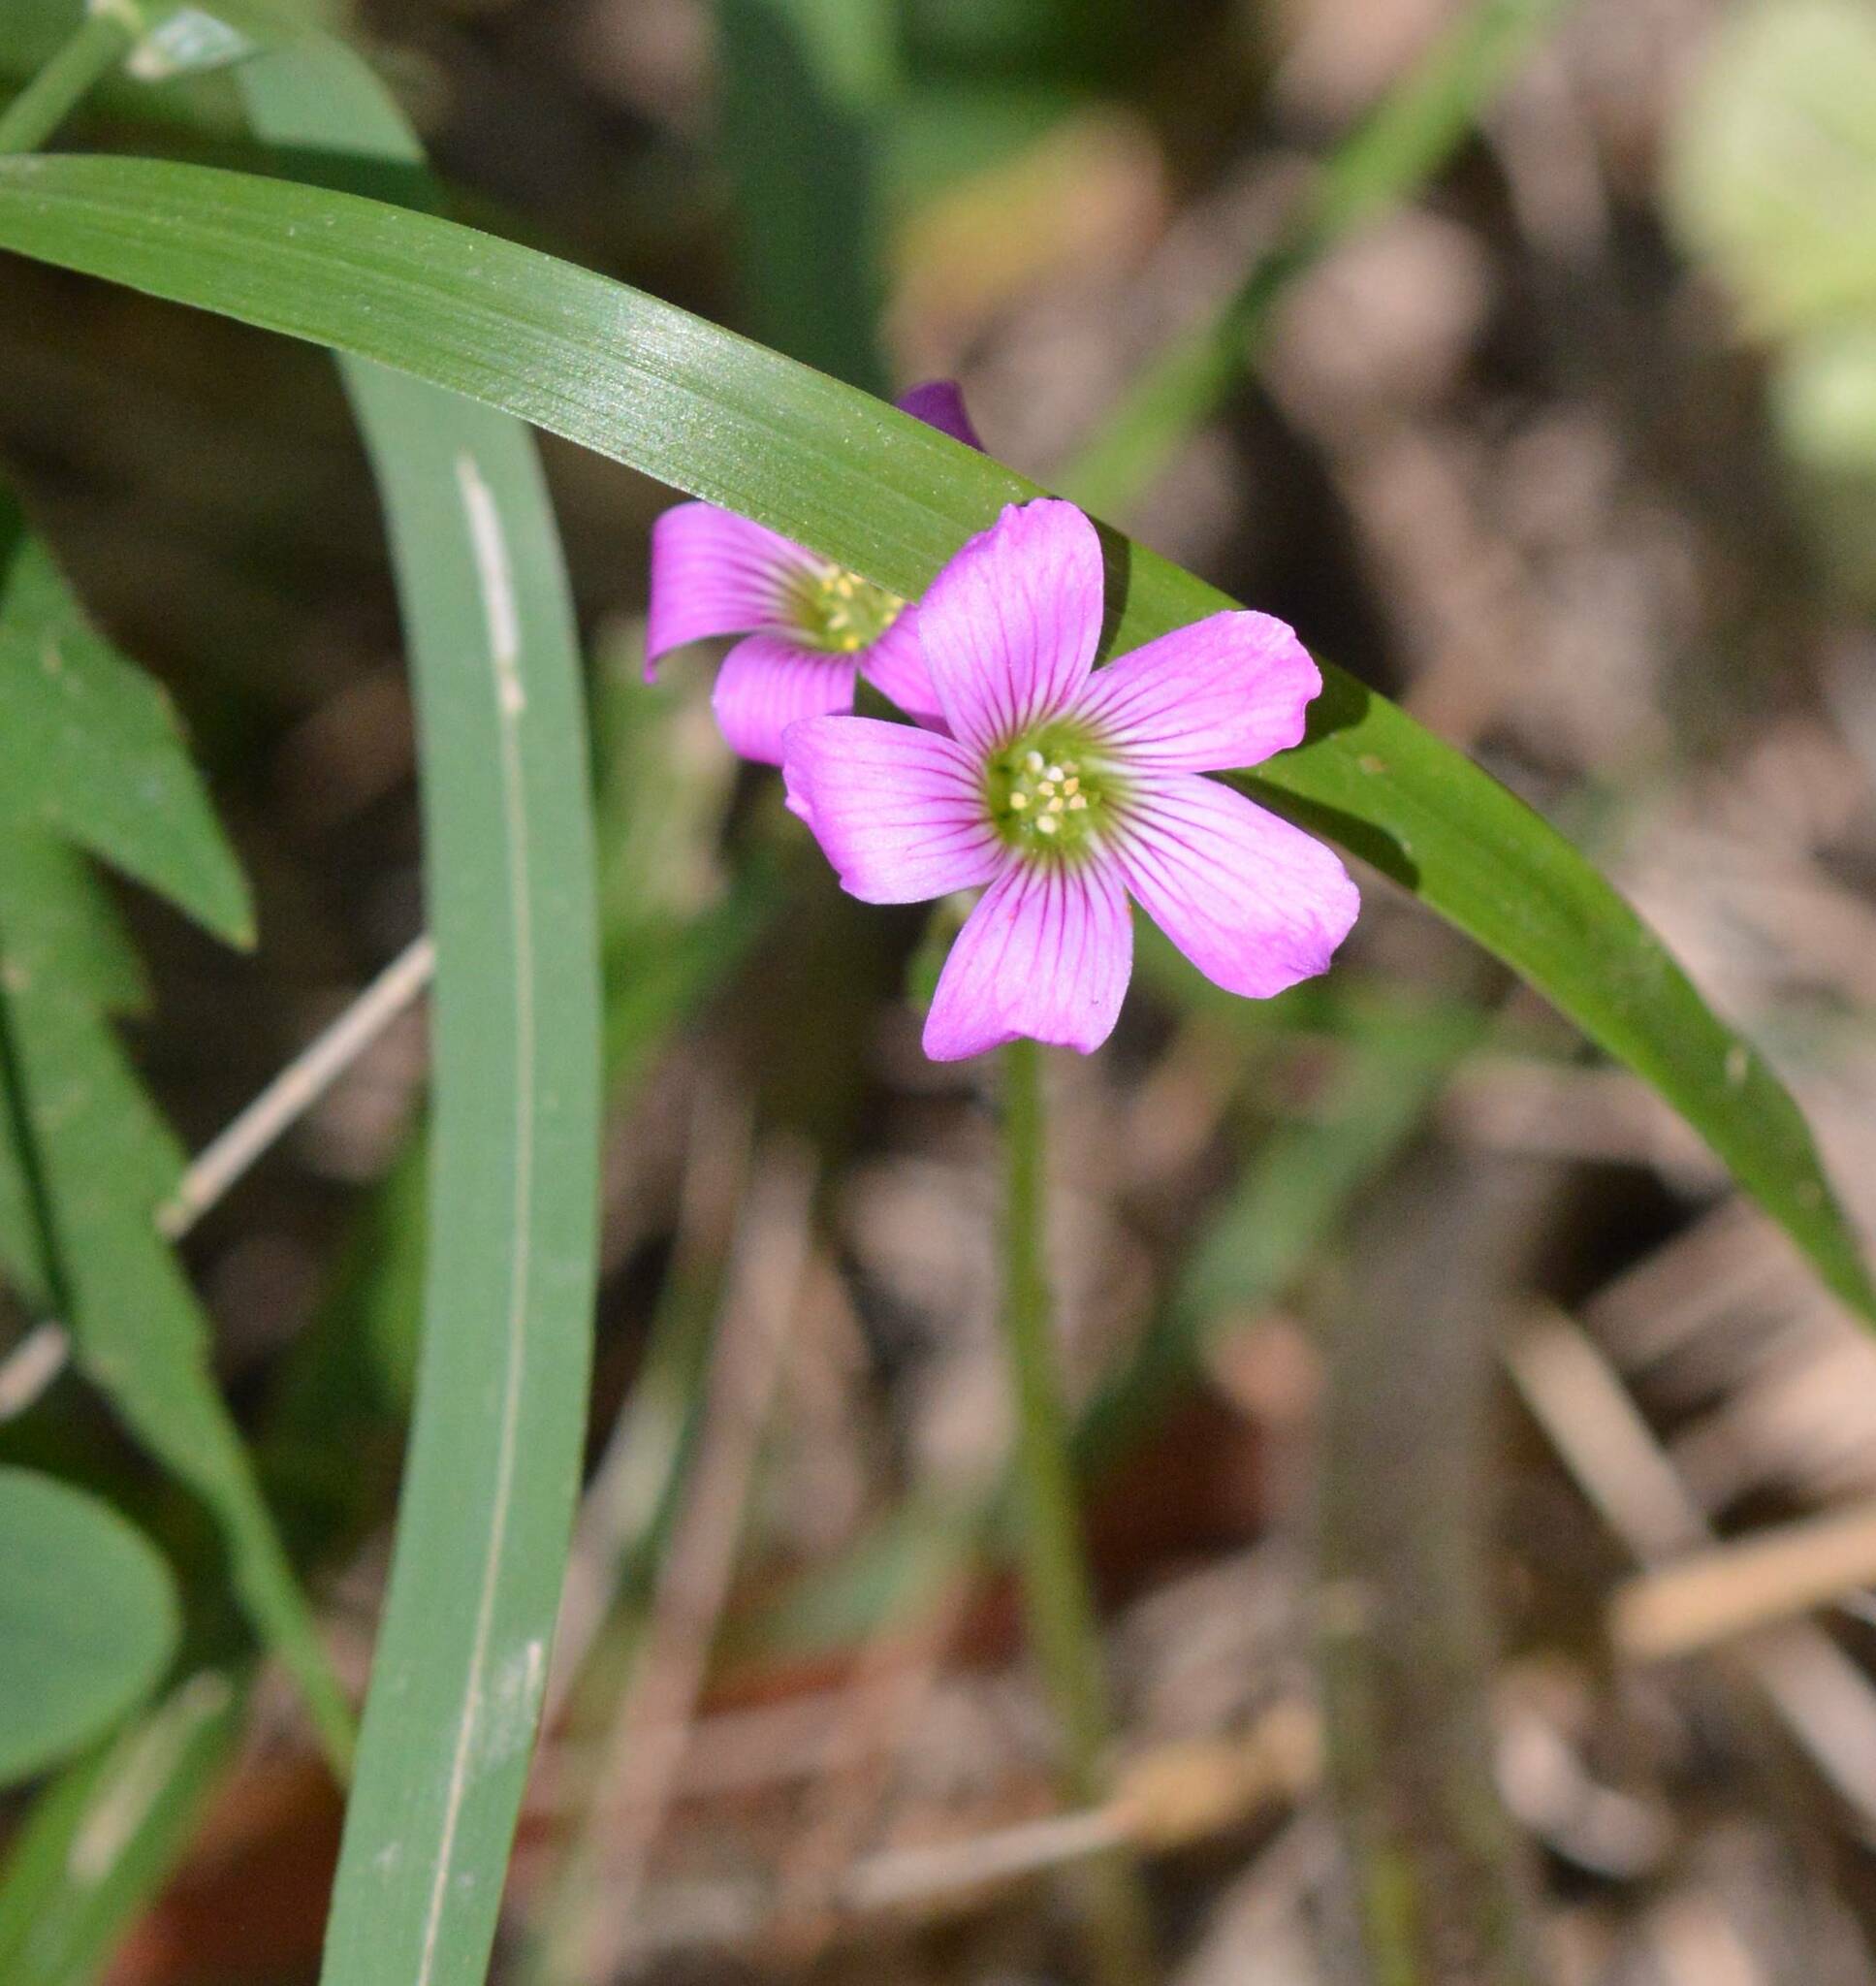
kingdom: Plantae
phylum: Tracheophyta
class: Magnoliopsida
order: Oxalidales
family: Oxalidaceae
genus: Oxalis
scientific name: Oxalis debilis
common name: Large-flowered pink-sorrel
